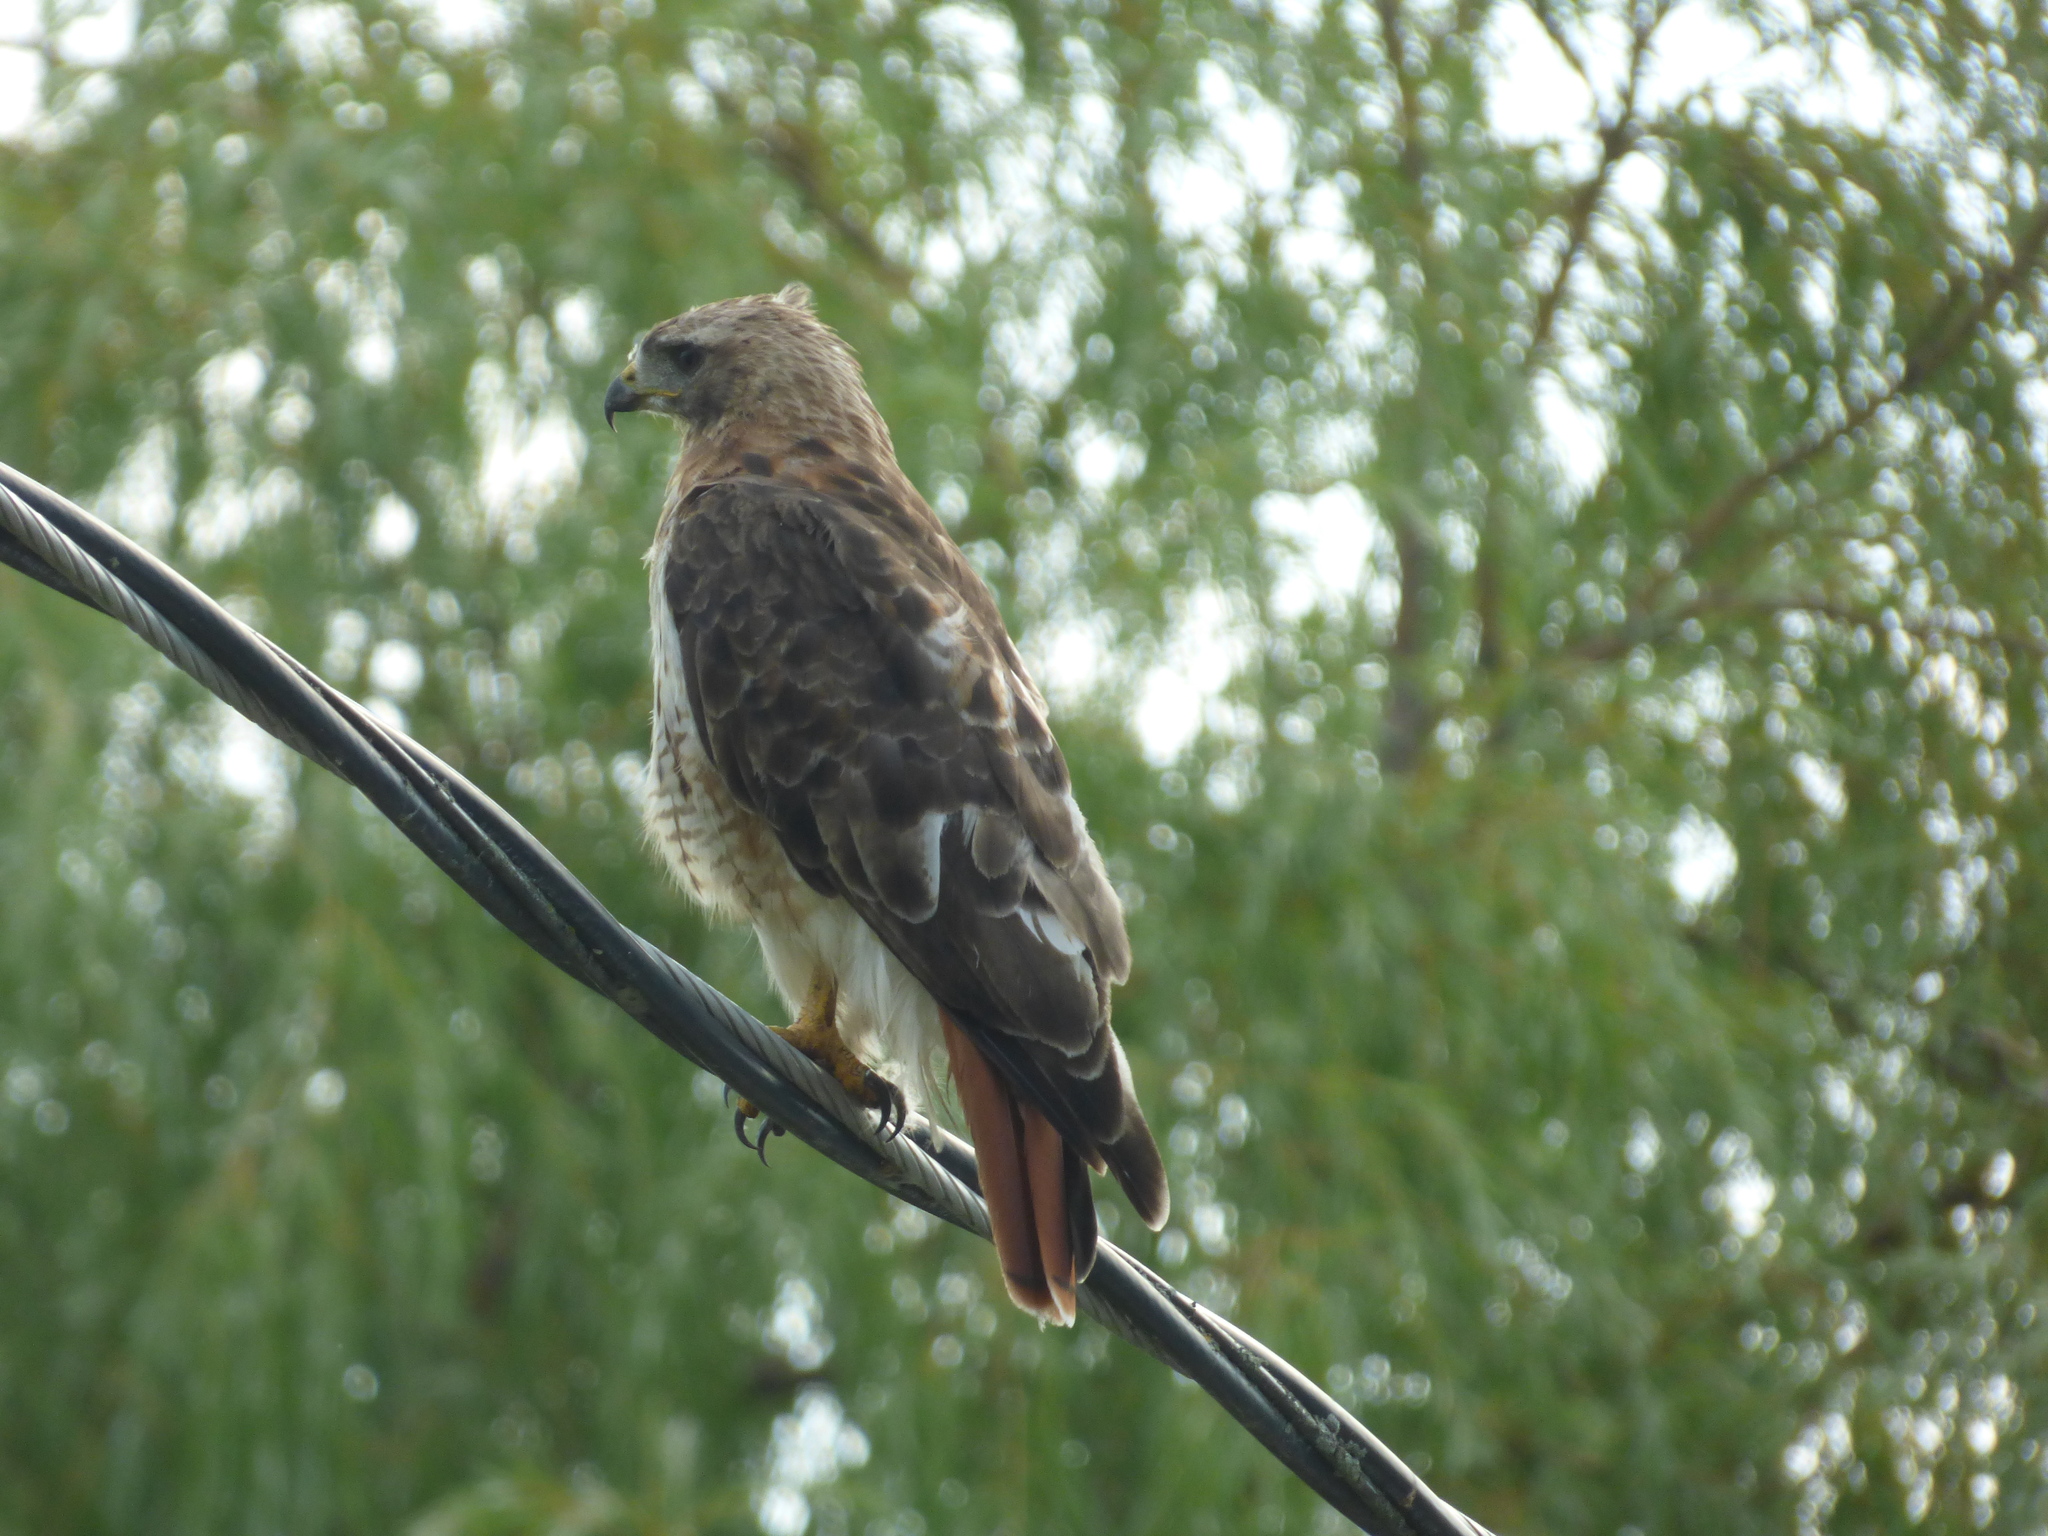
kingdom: Animalia
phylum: Chordata
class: Aves
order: Accipitriformes
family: Accipitridae
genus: Buteo
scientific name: Buteo jamaicensis
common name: Red-tailed hawk
